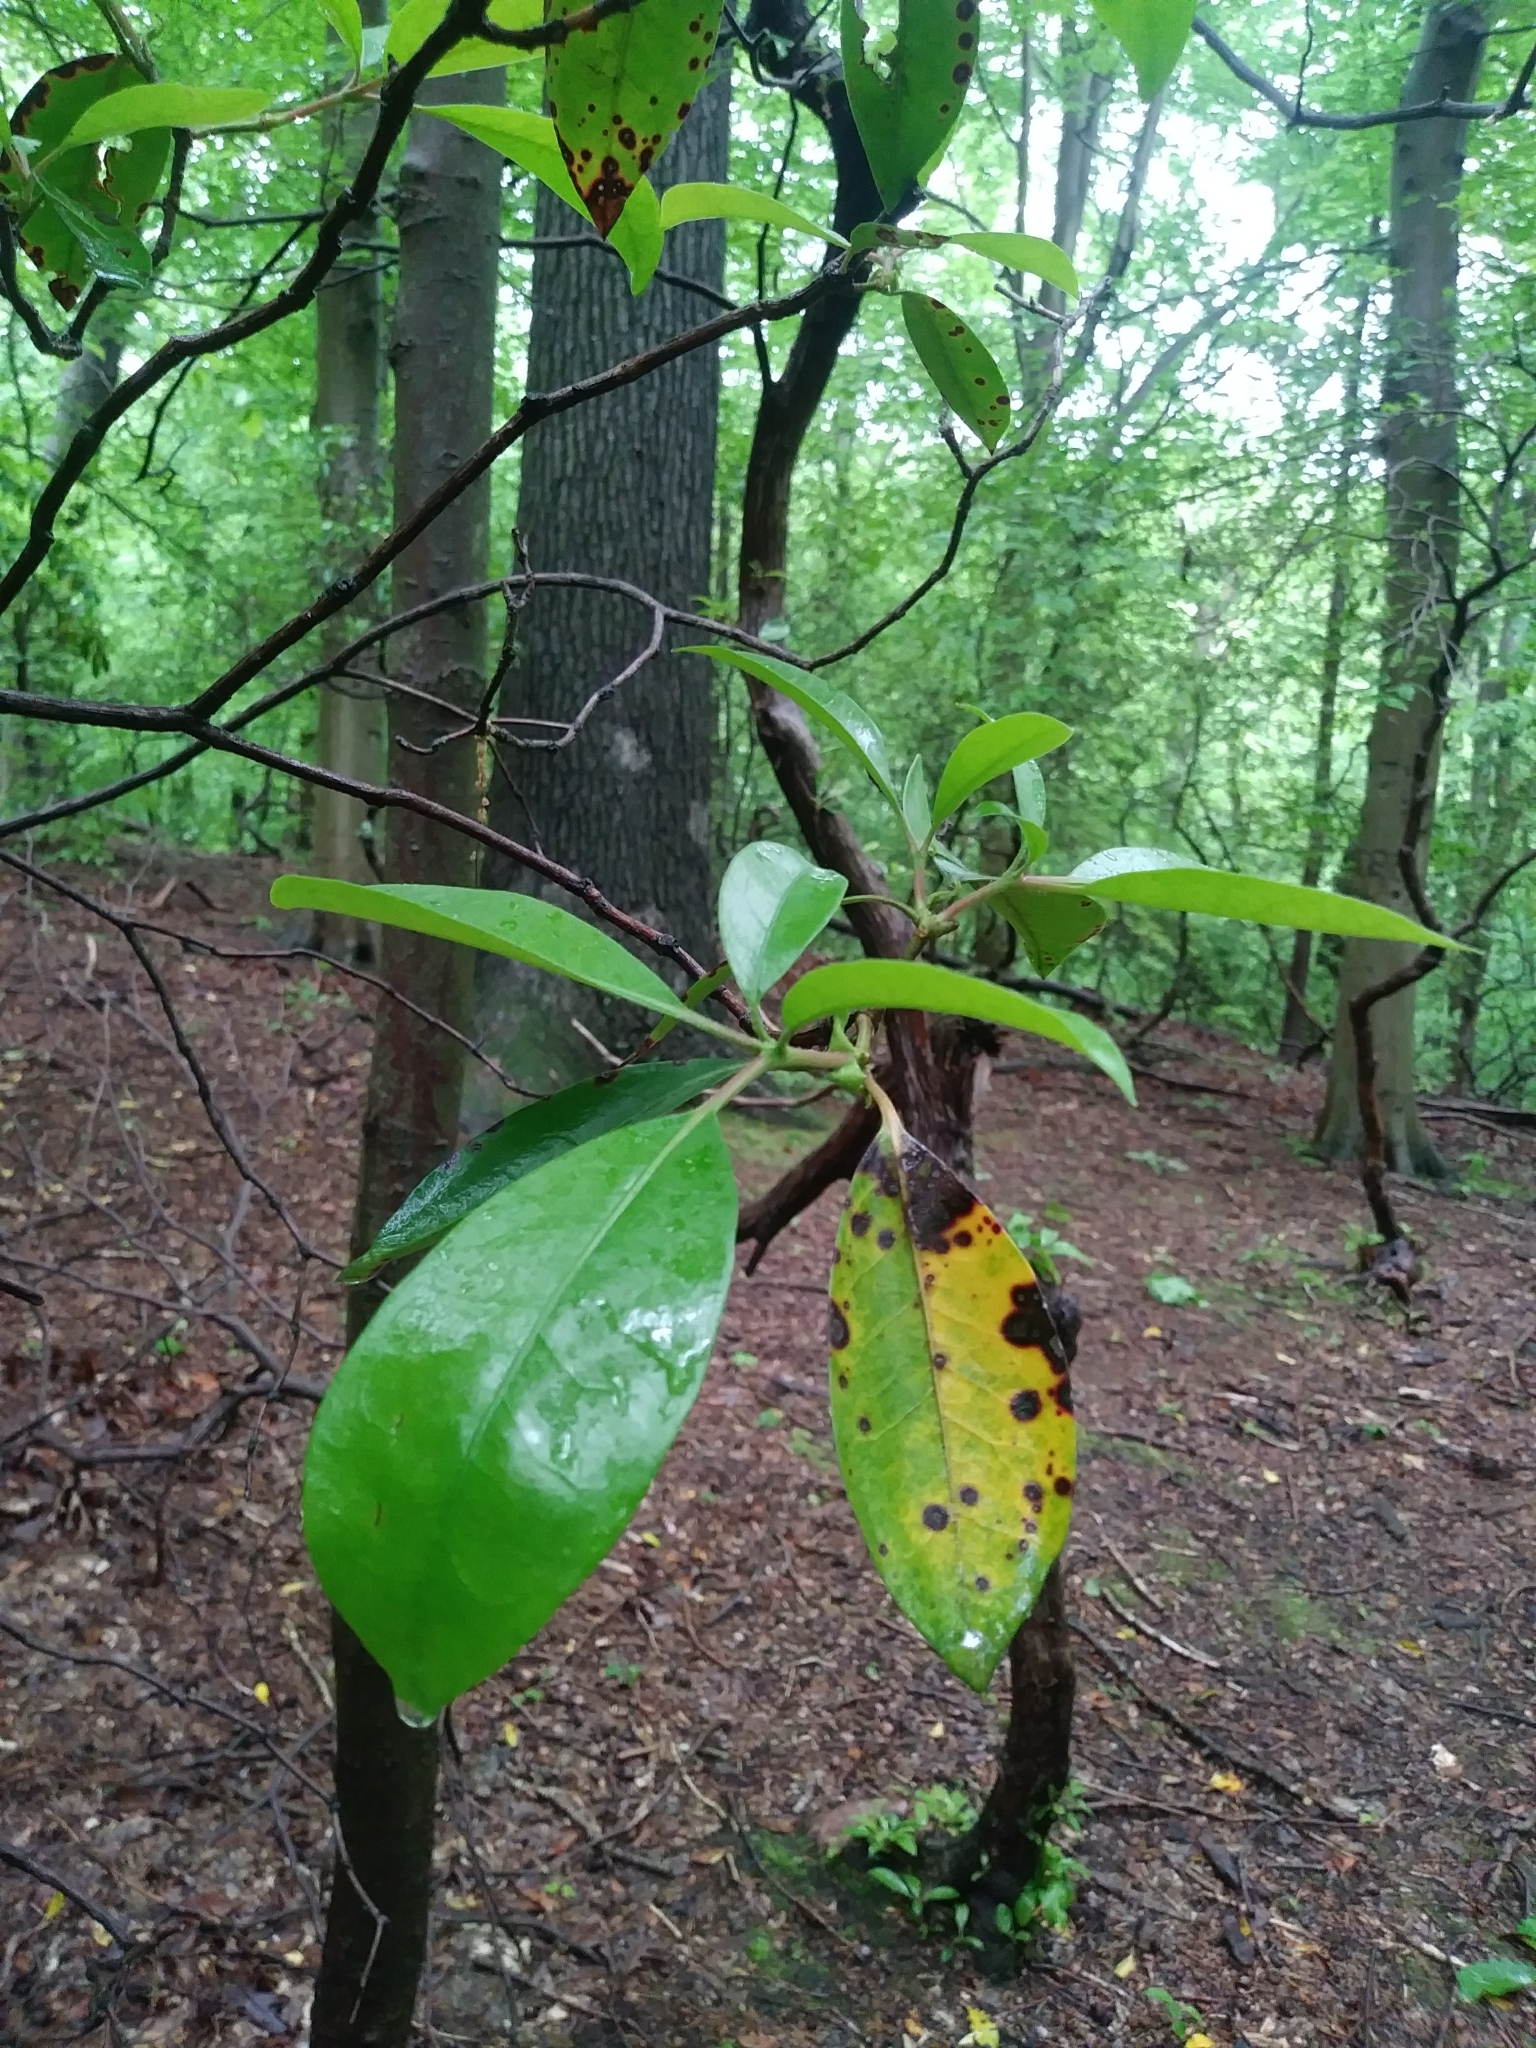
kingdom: Plantae
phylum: Tracheophyta
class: Magnoliopsida
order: Ericales
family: Ericaceae
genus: Kalmia
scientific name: Kalmia latifolia
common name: Mountain-laurel
